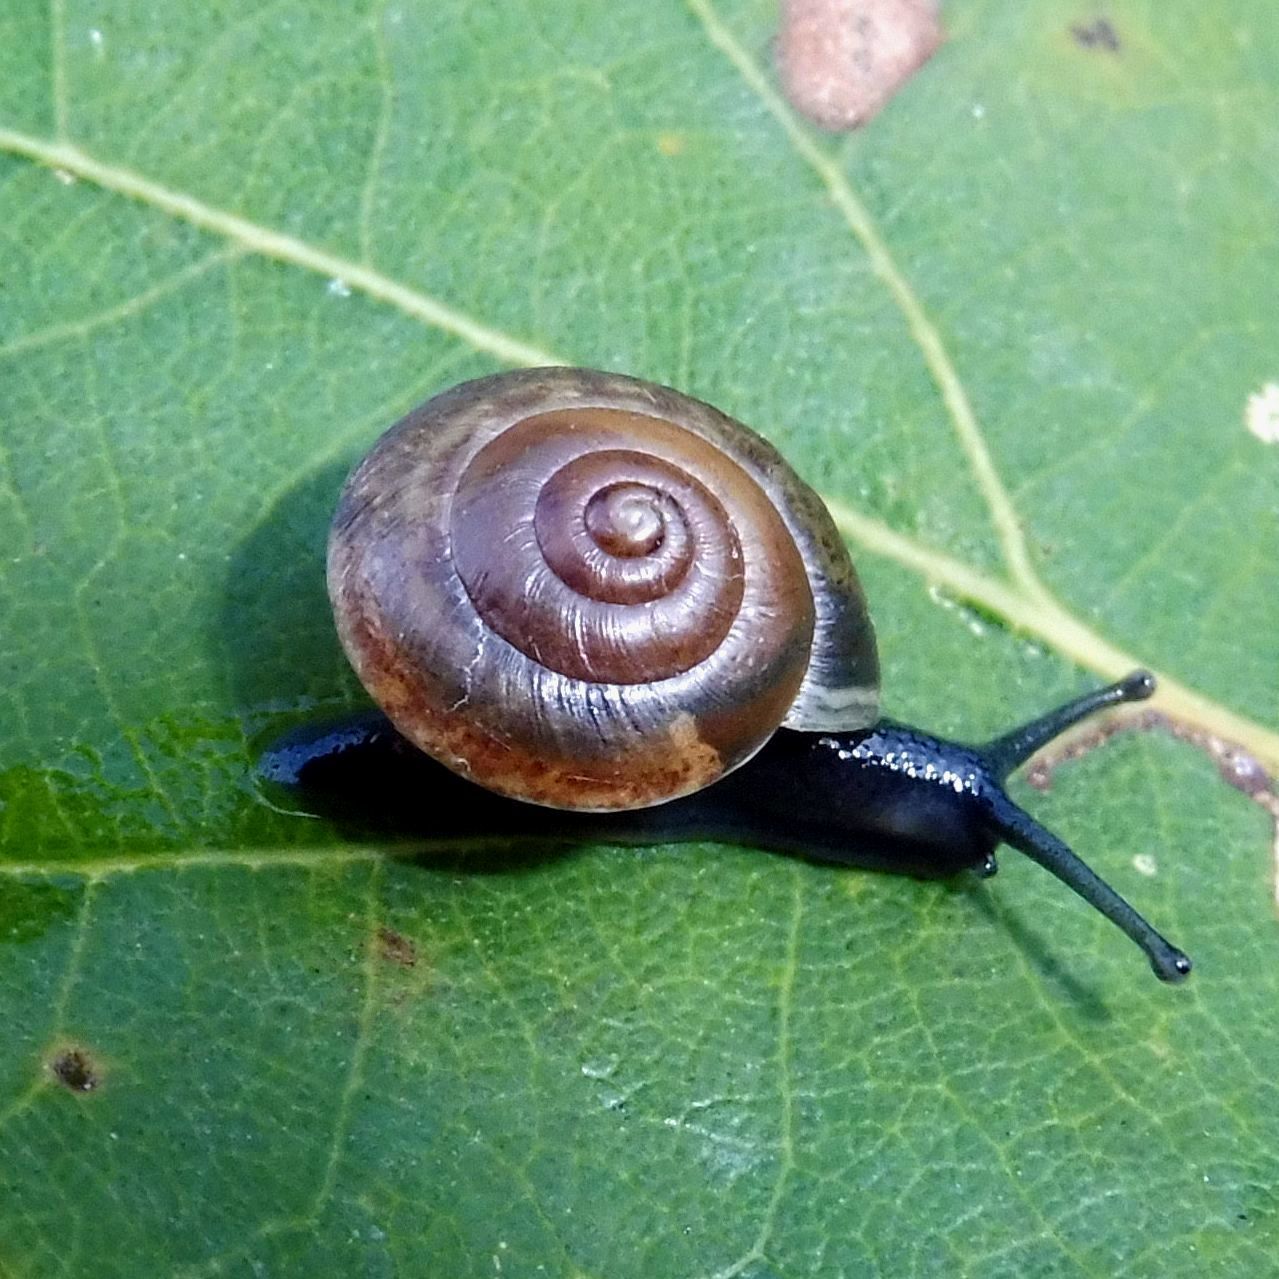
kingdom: Animalia
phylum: Mollusca
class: Gastropoda
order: Stylommatophora
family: Hygromiidae
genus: Hygromia
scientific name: Hygromia cinctella
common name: Girdled snail
